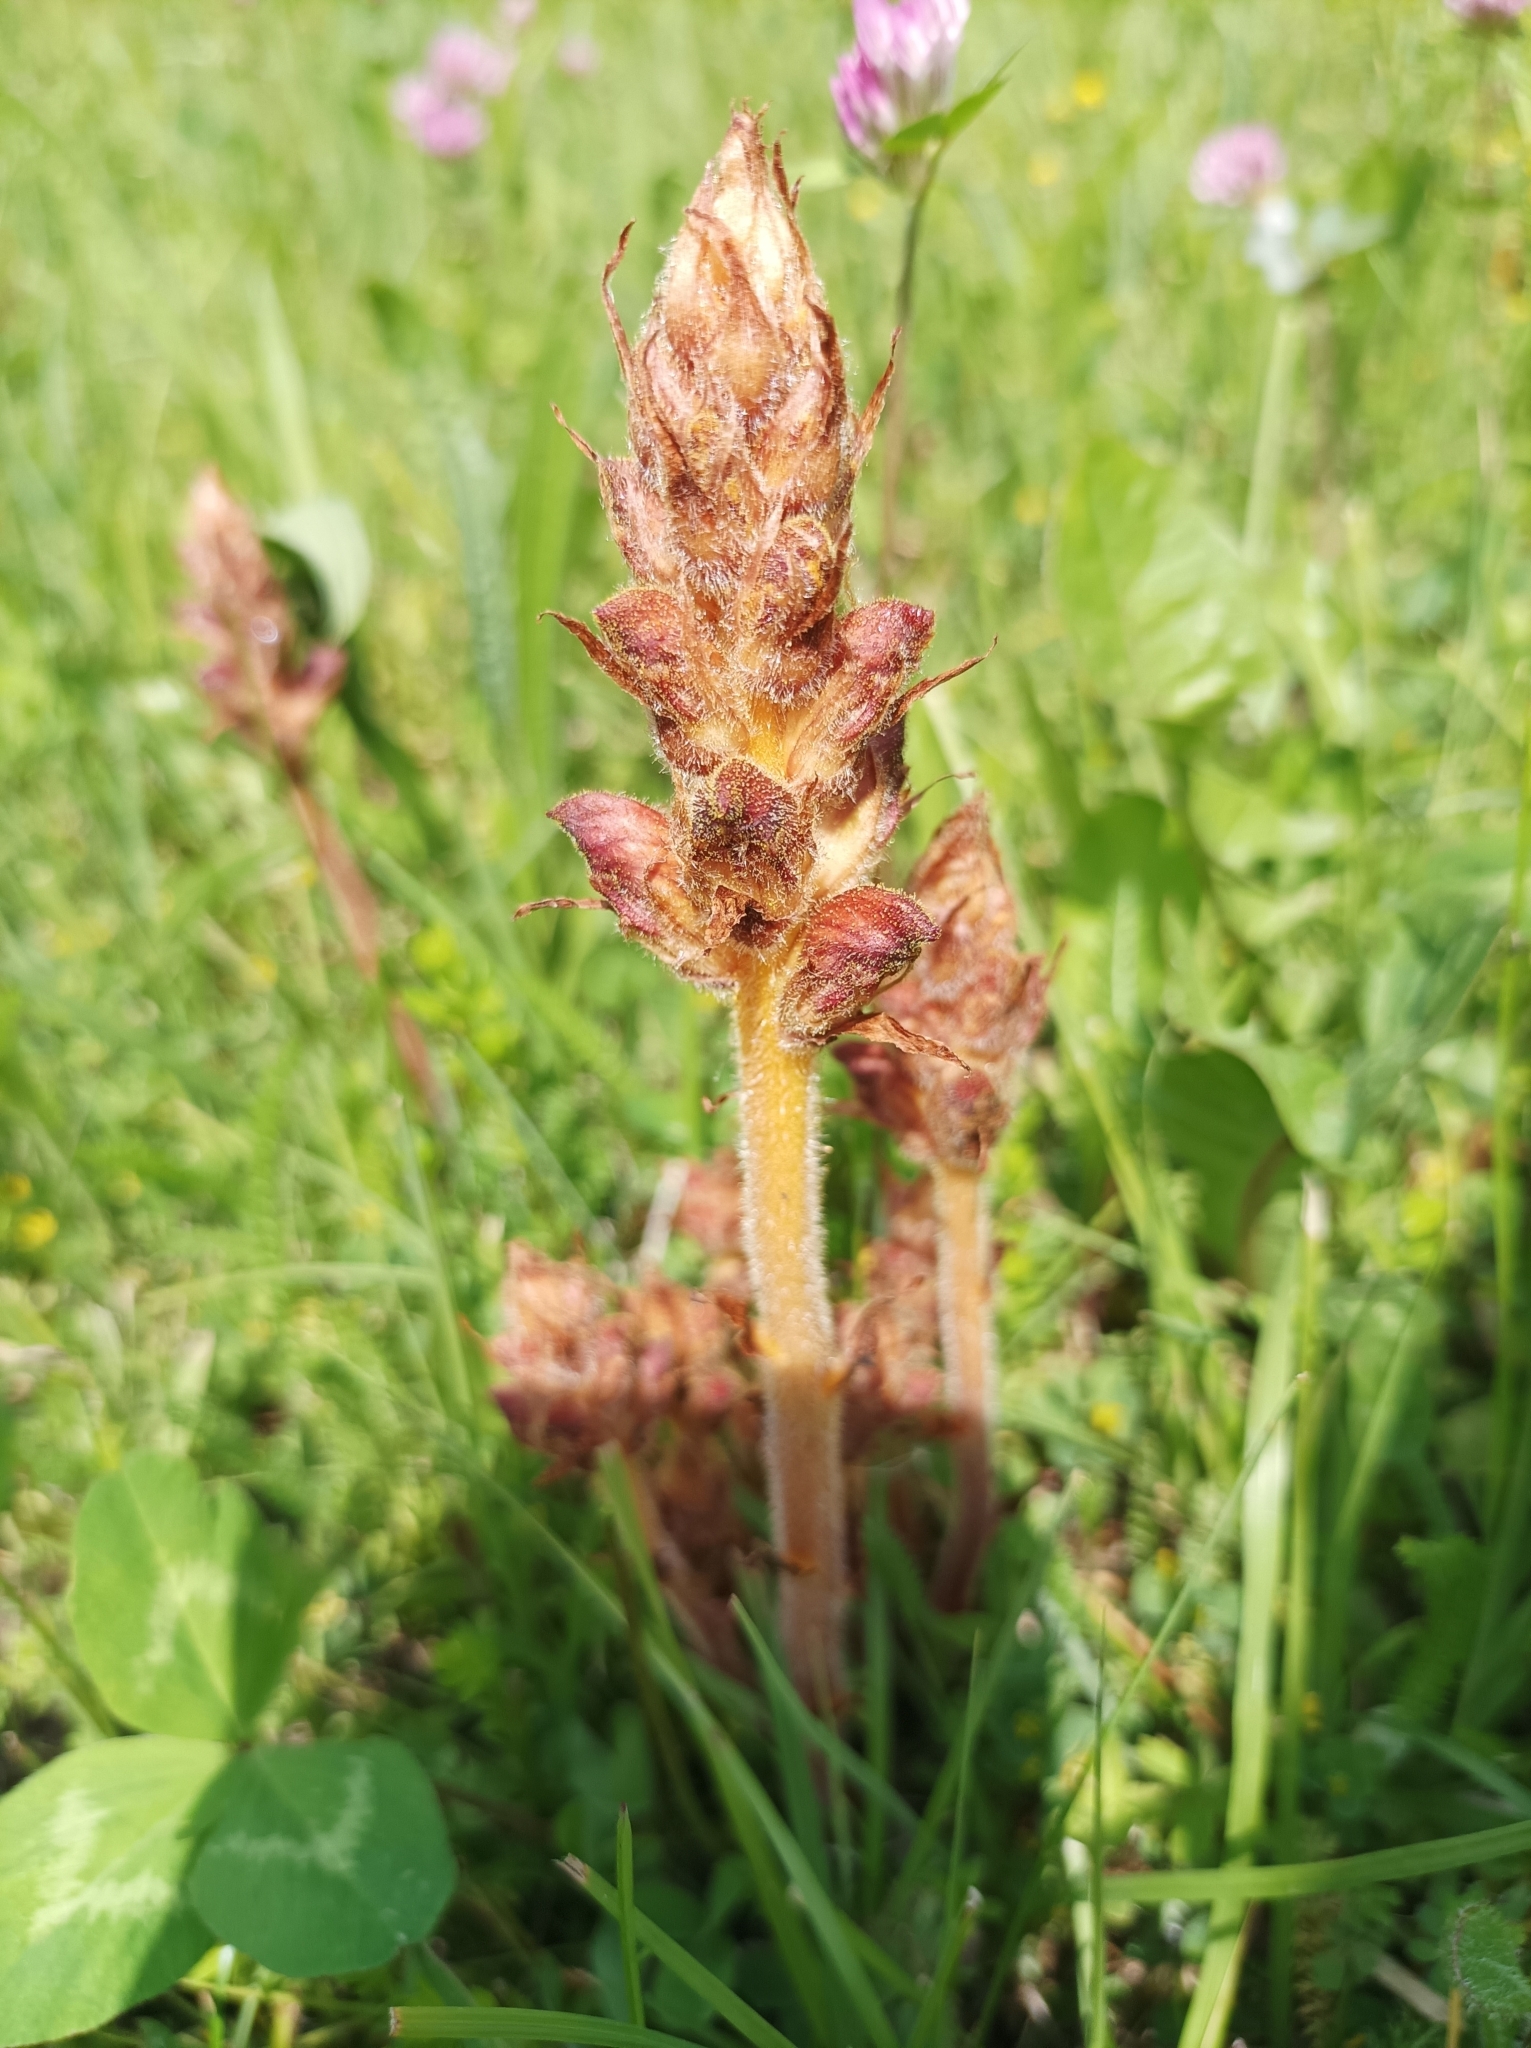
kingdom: Plantae
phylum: Tracheophyta
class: Magnoliopsida
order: Lamiales
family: Orobanchaceae
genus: Orobanche
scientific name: Orobanche gracilis
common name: Slender broomrape
